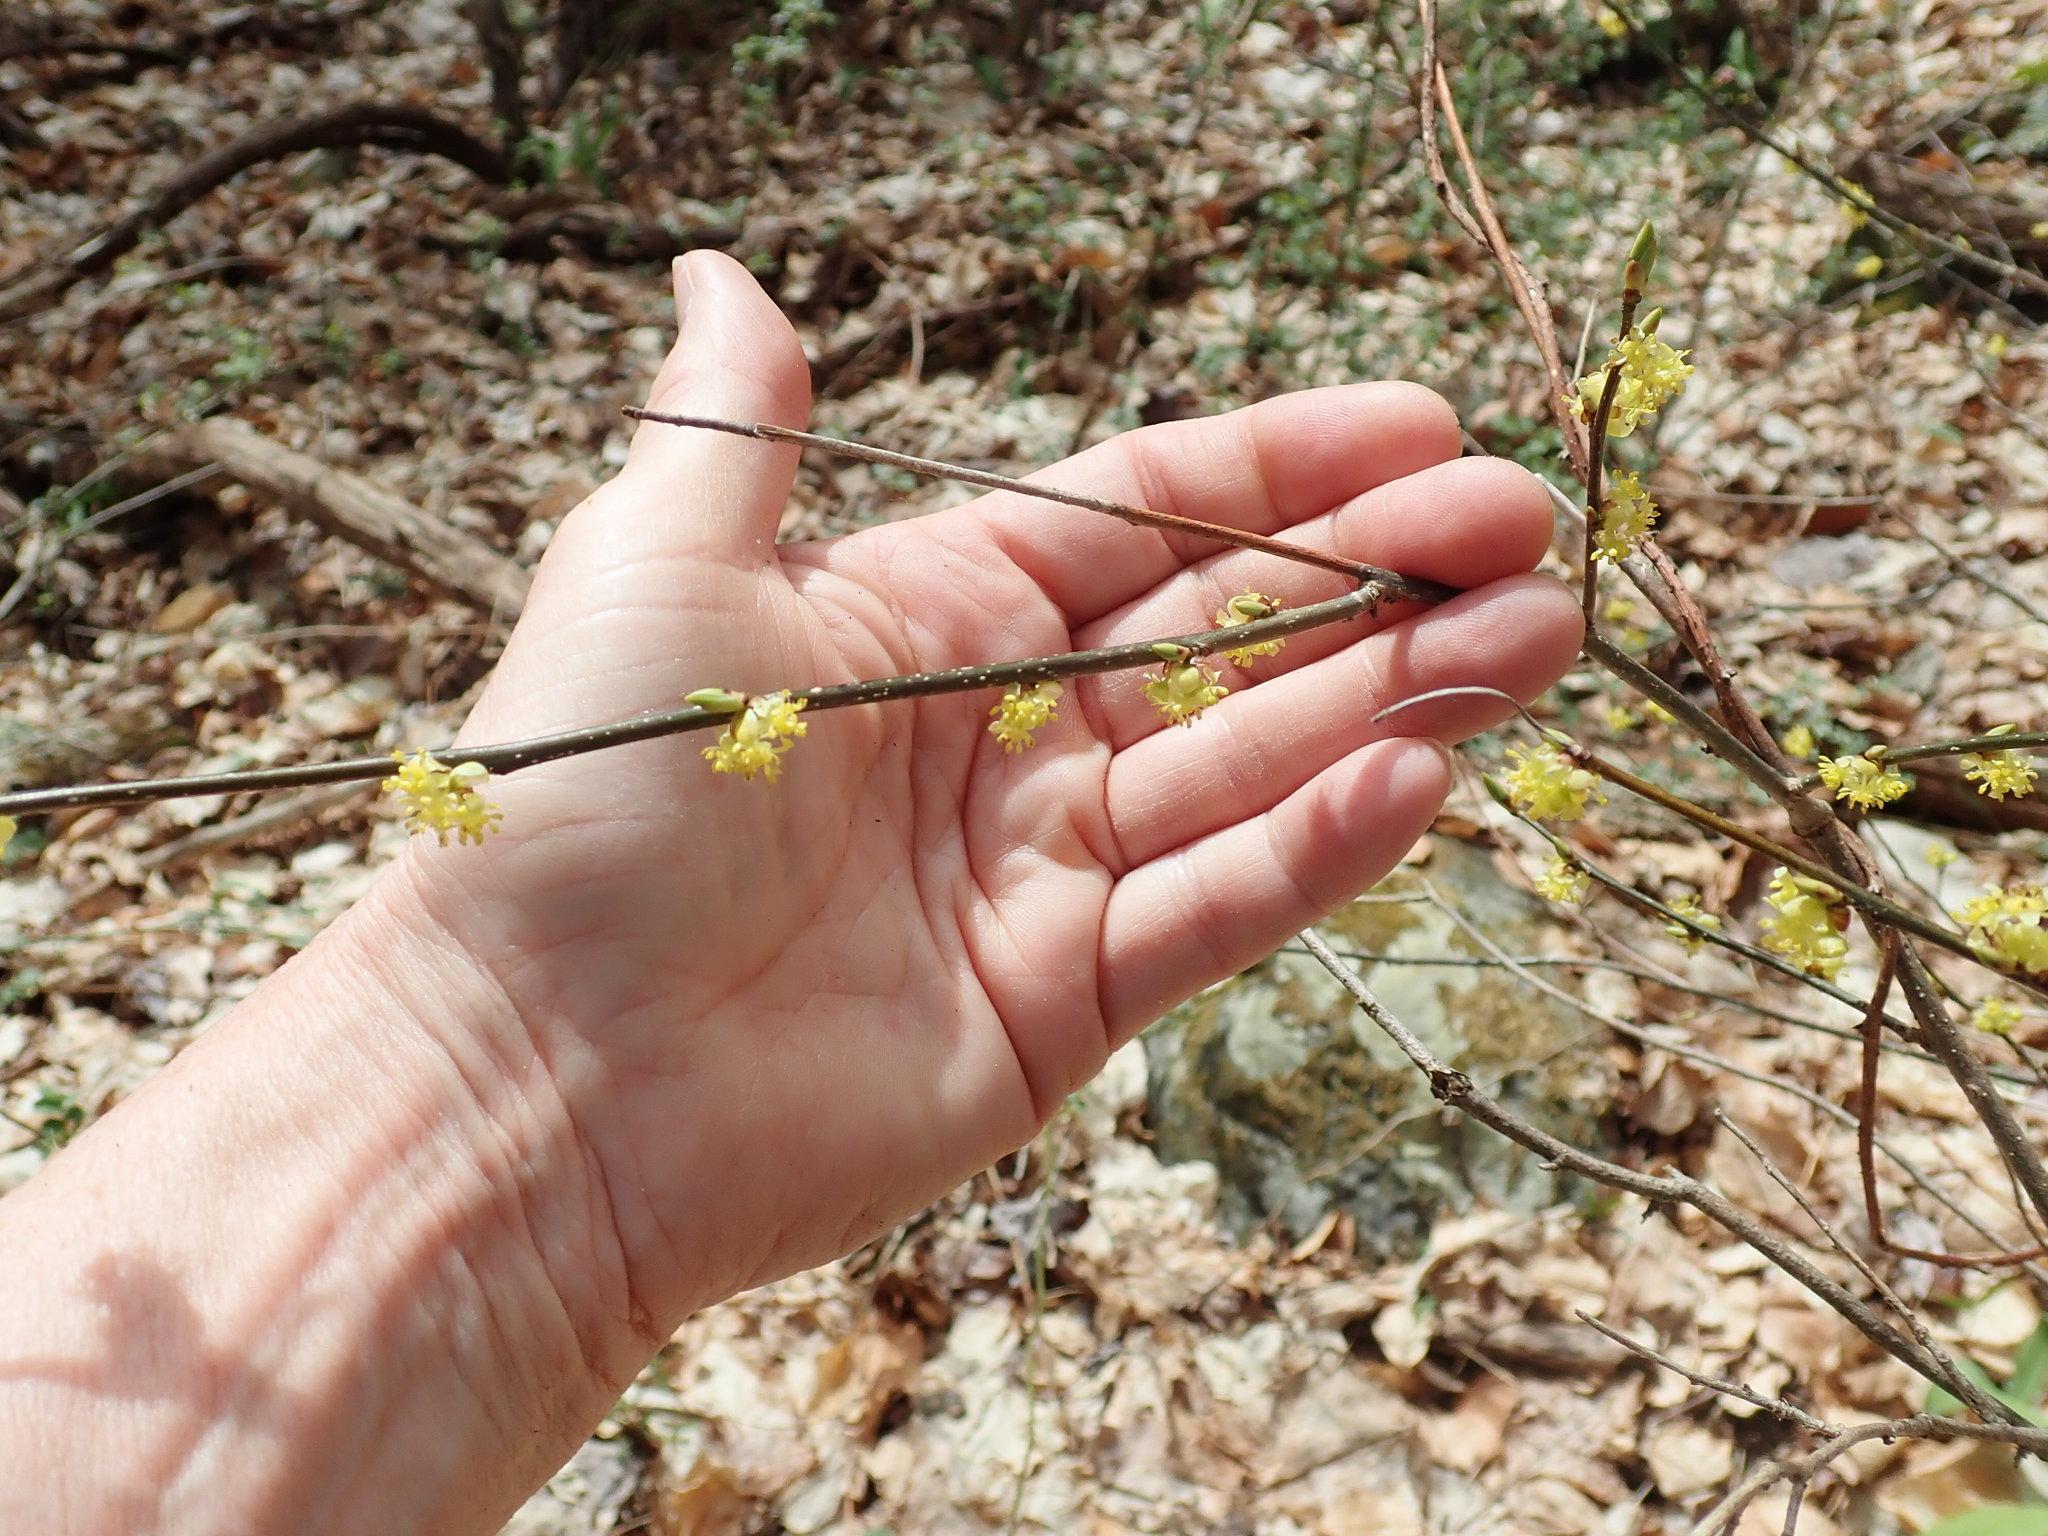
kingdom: Plantae
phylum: Tracheophyta
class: Magnoliopsida
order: Laurales
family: Lauraceae
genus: Lindera
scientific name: Lindera benzoin
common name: Spicebush
